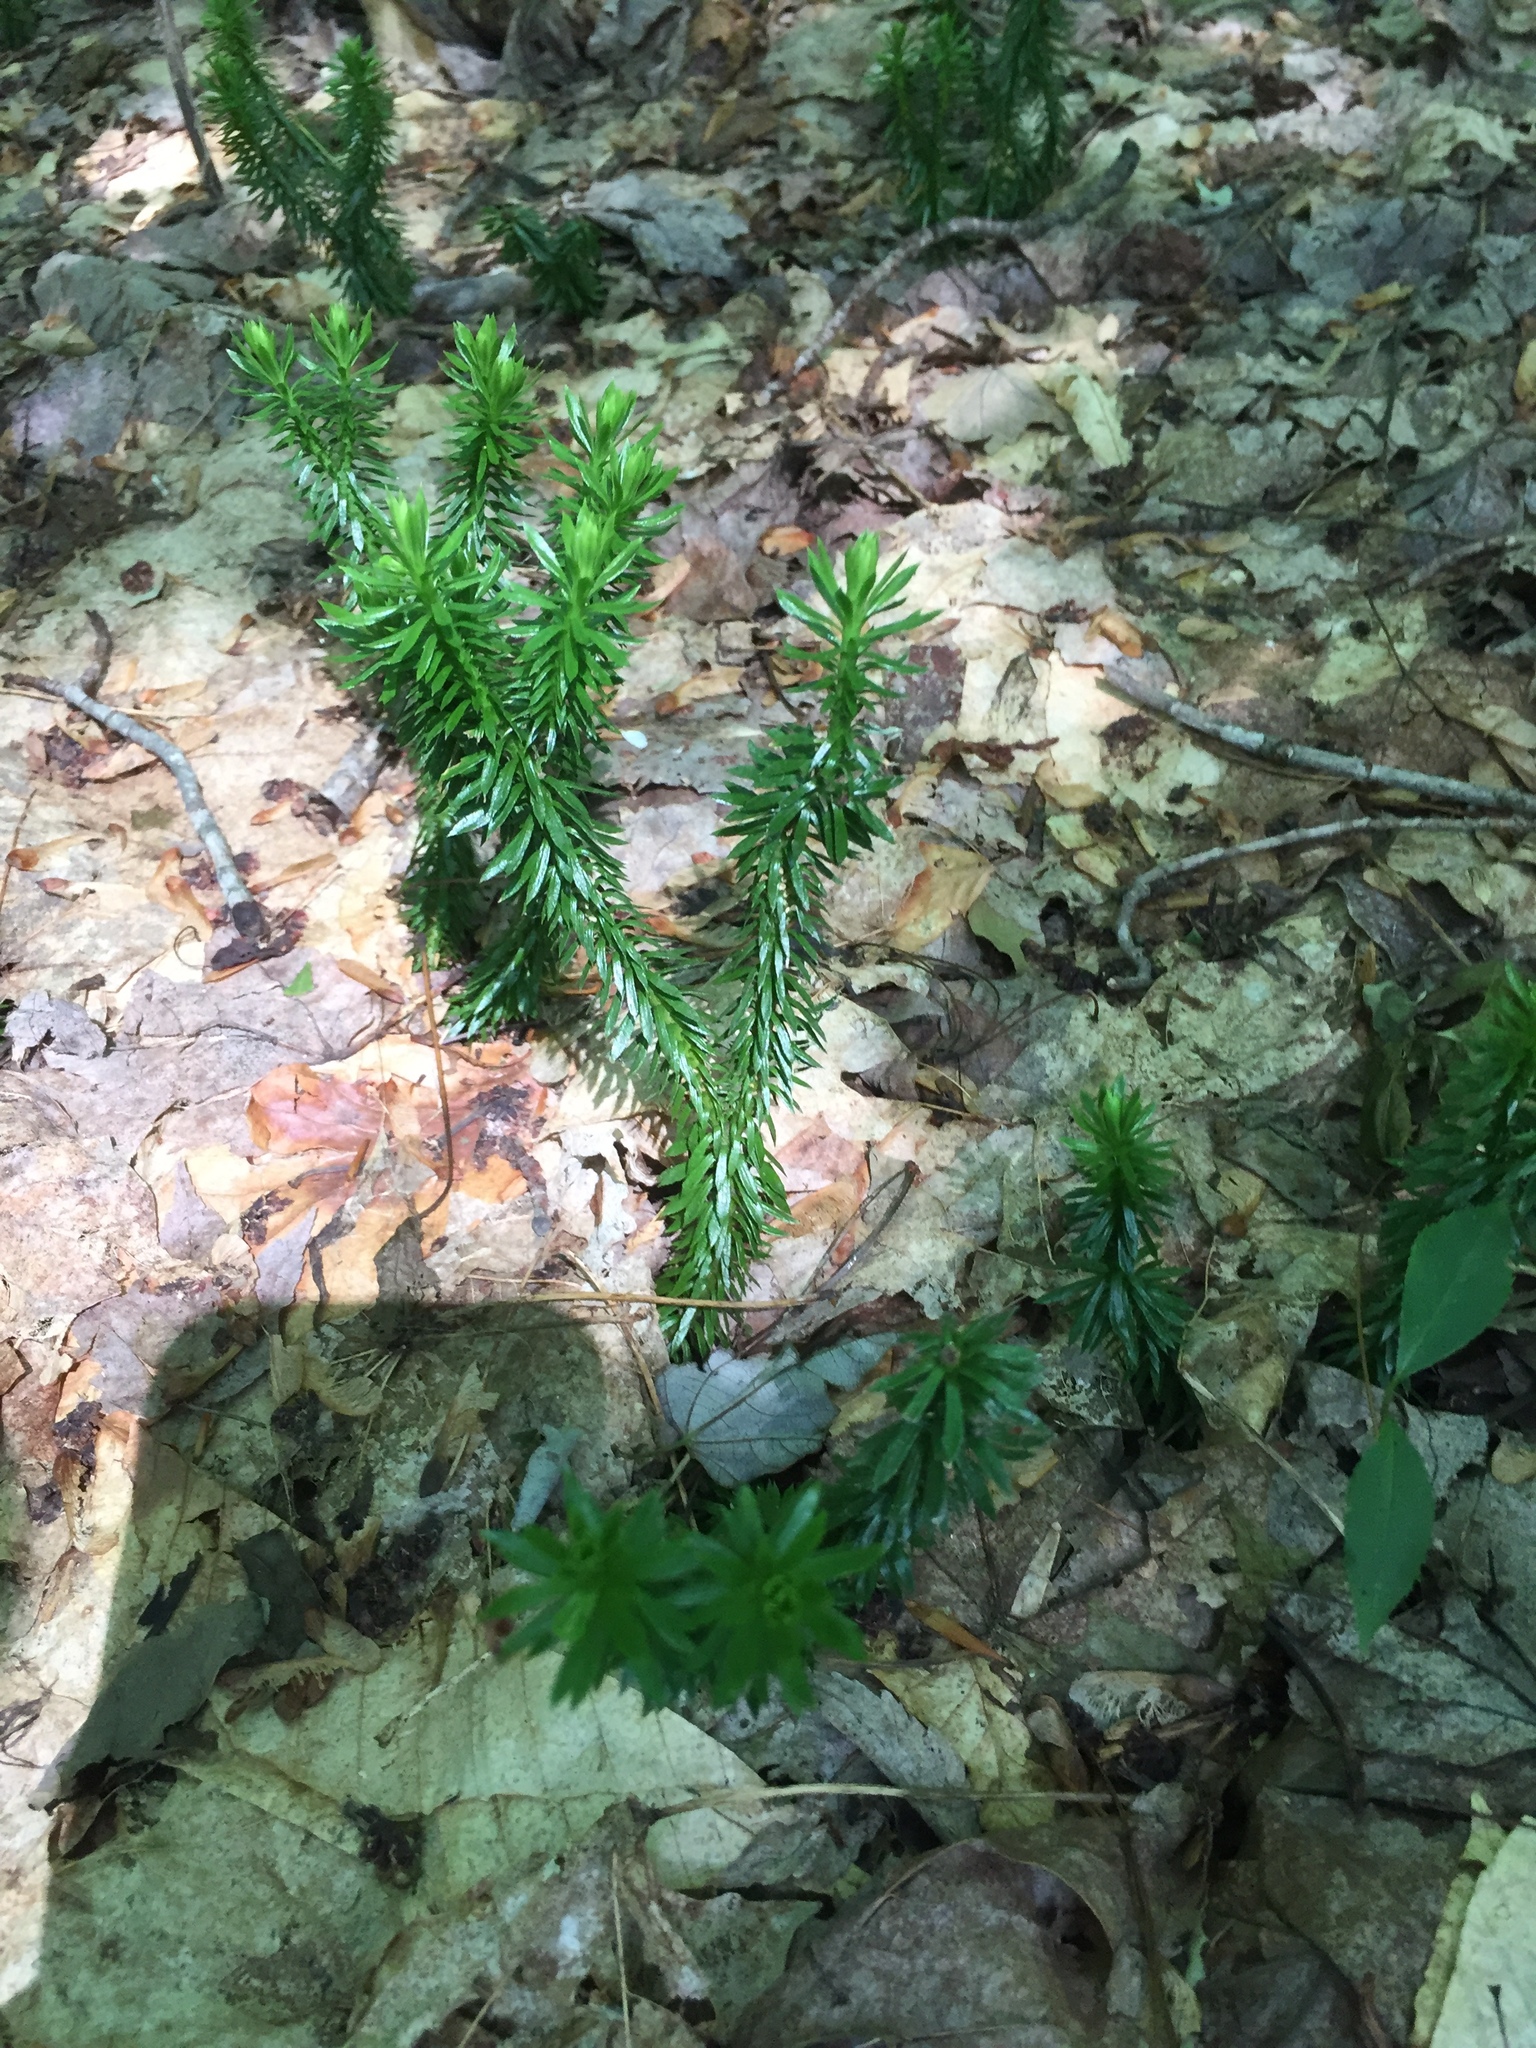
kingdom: Plantae
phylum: Tracheophyta
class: Lycopodiopsida
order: Lycopodiales
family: Lycopodiaceae
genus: Huperzia
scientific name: Huperzia lucidula
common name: Shining clubmoss
